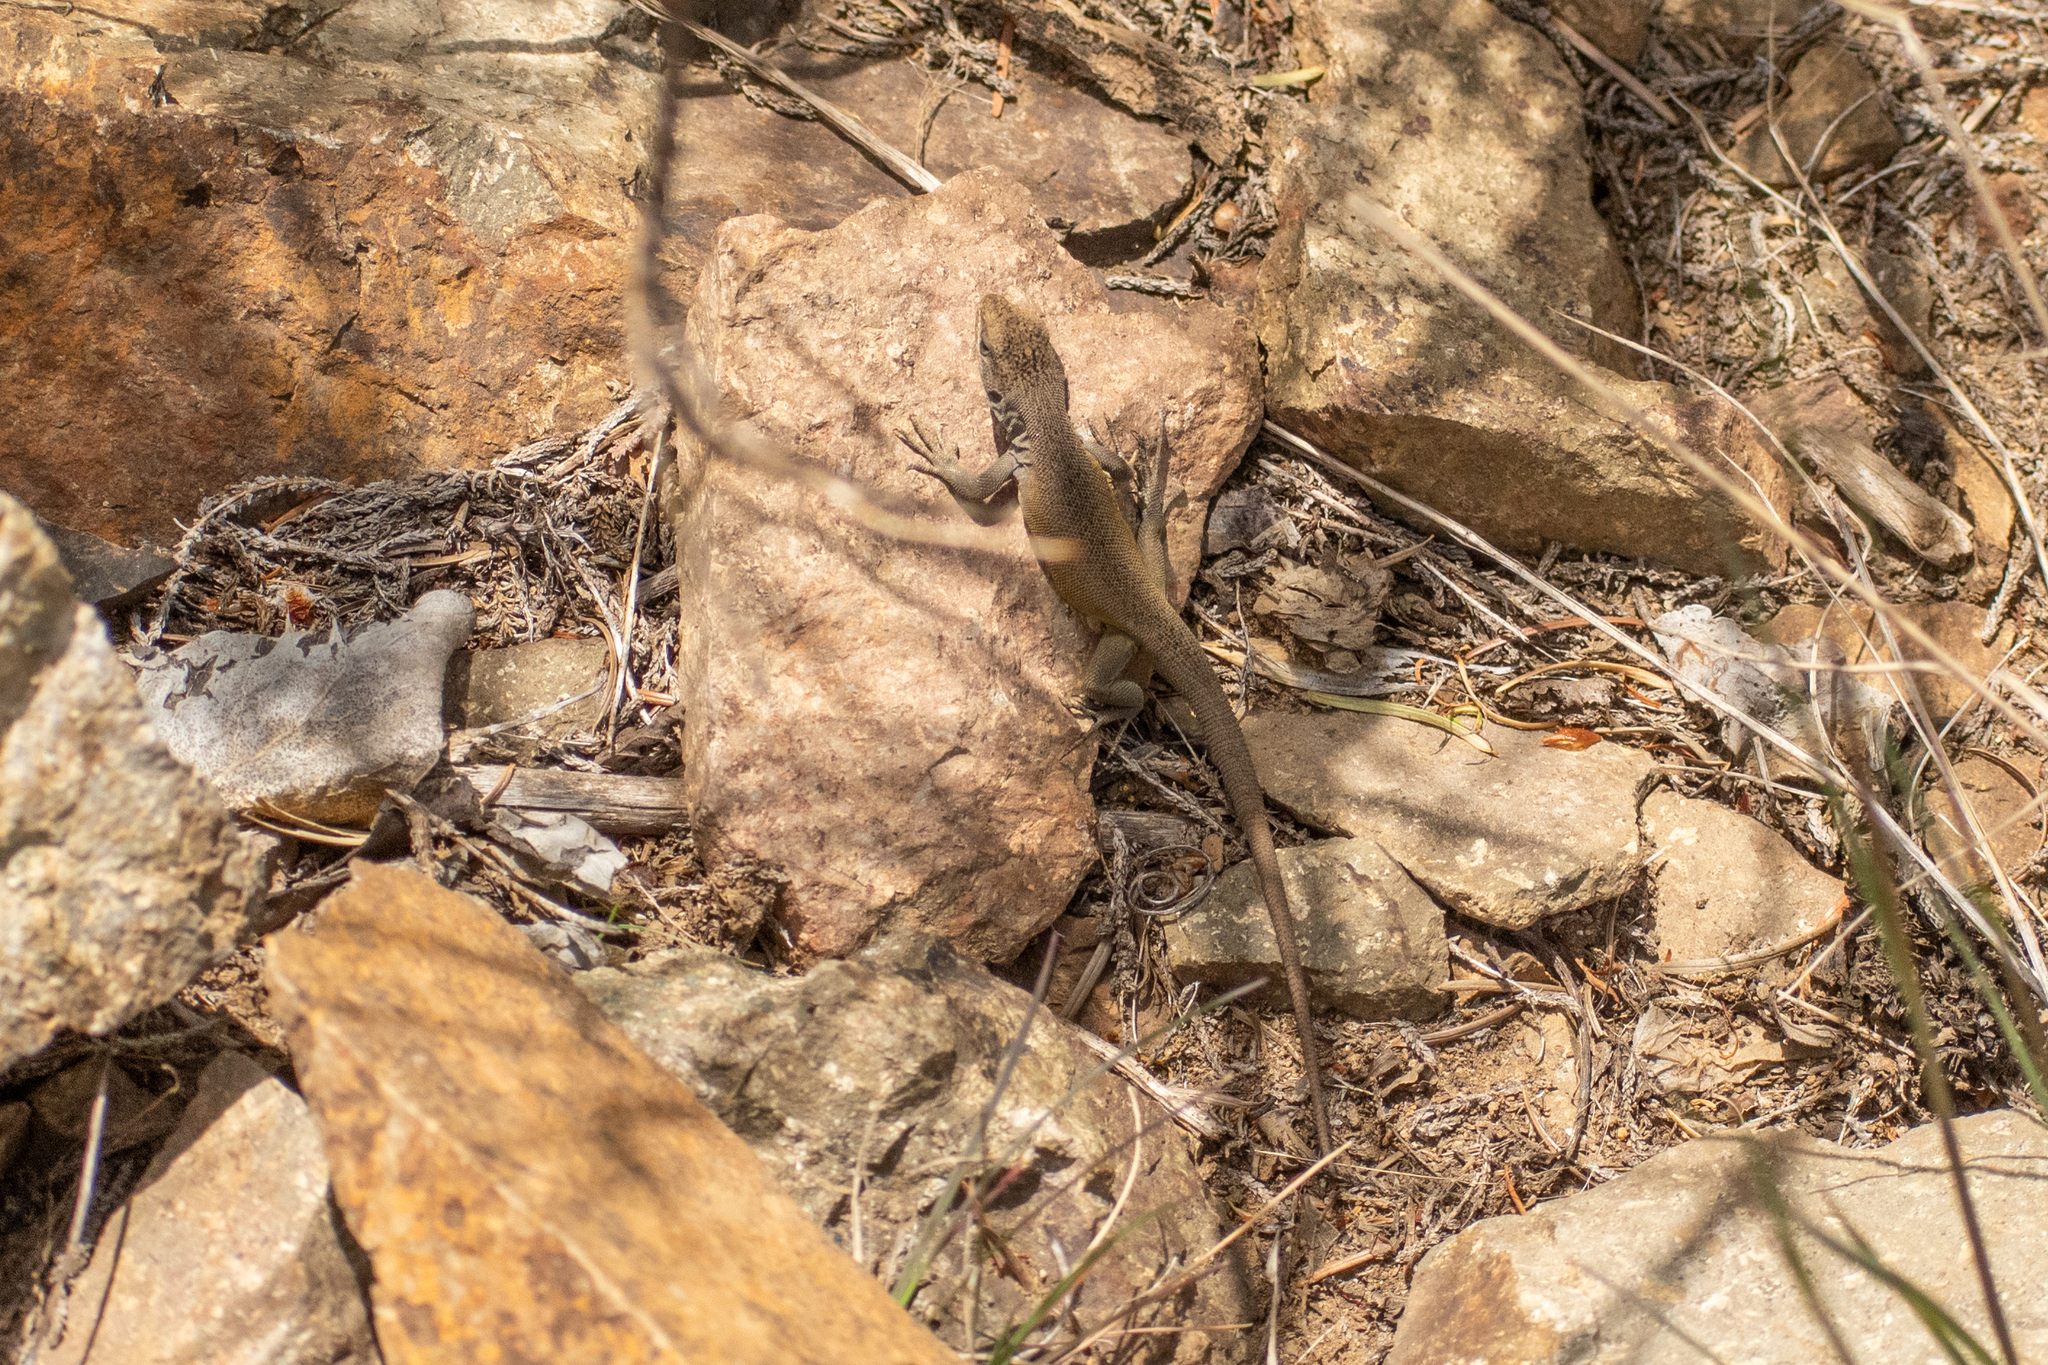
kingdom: Animalia
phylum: Chordata
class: Squamata
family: Liolaemidae
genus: Liolaemus
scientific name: Liolaemus elongatus
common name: Elongate tree iguana
